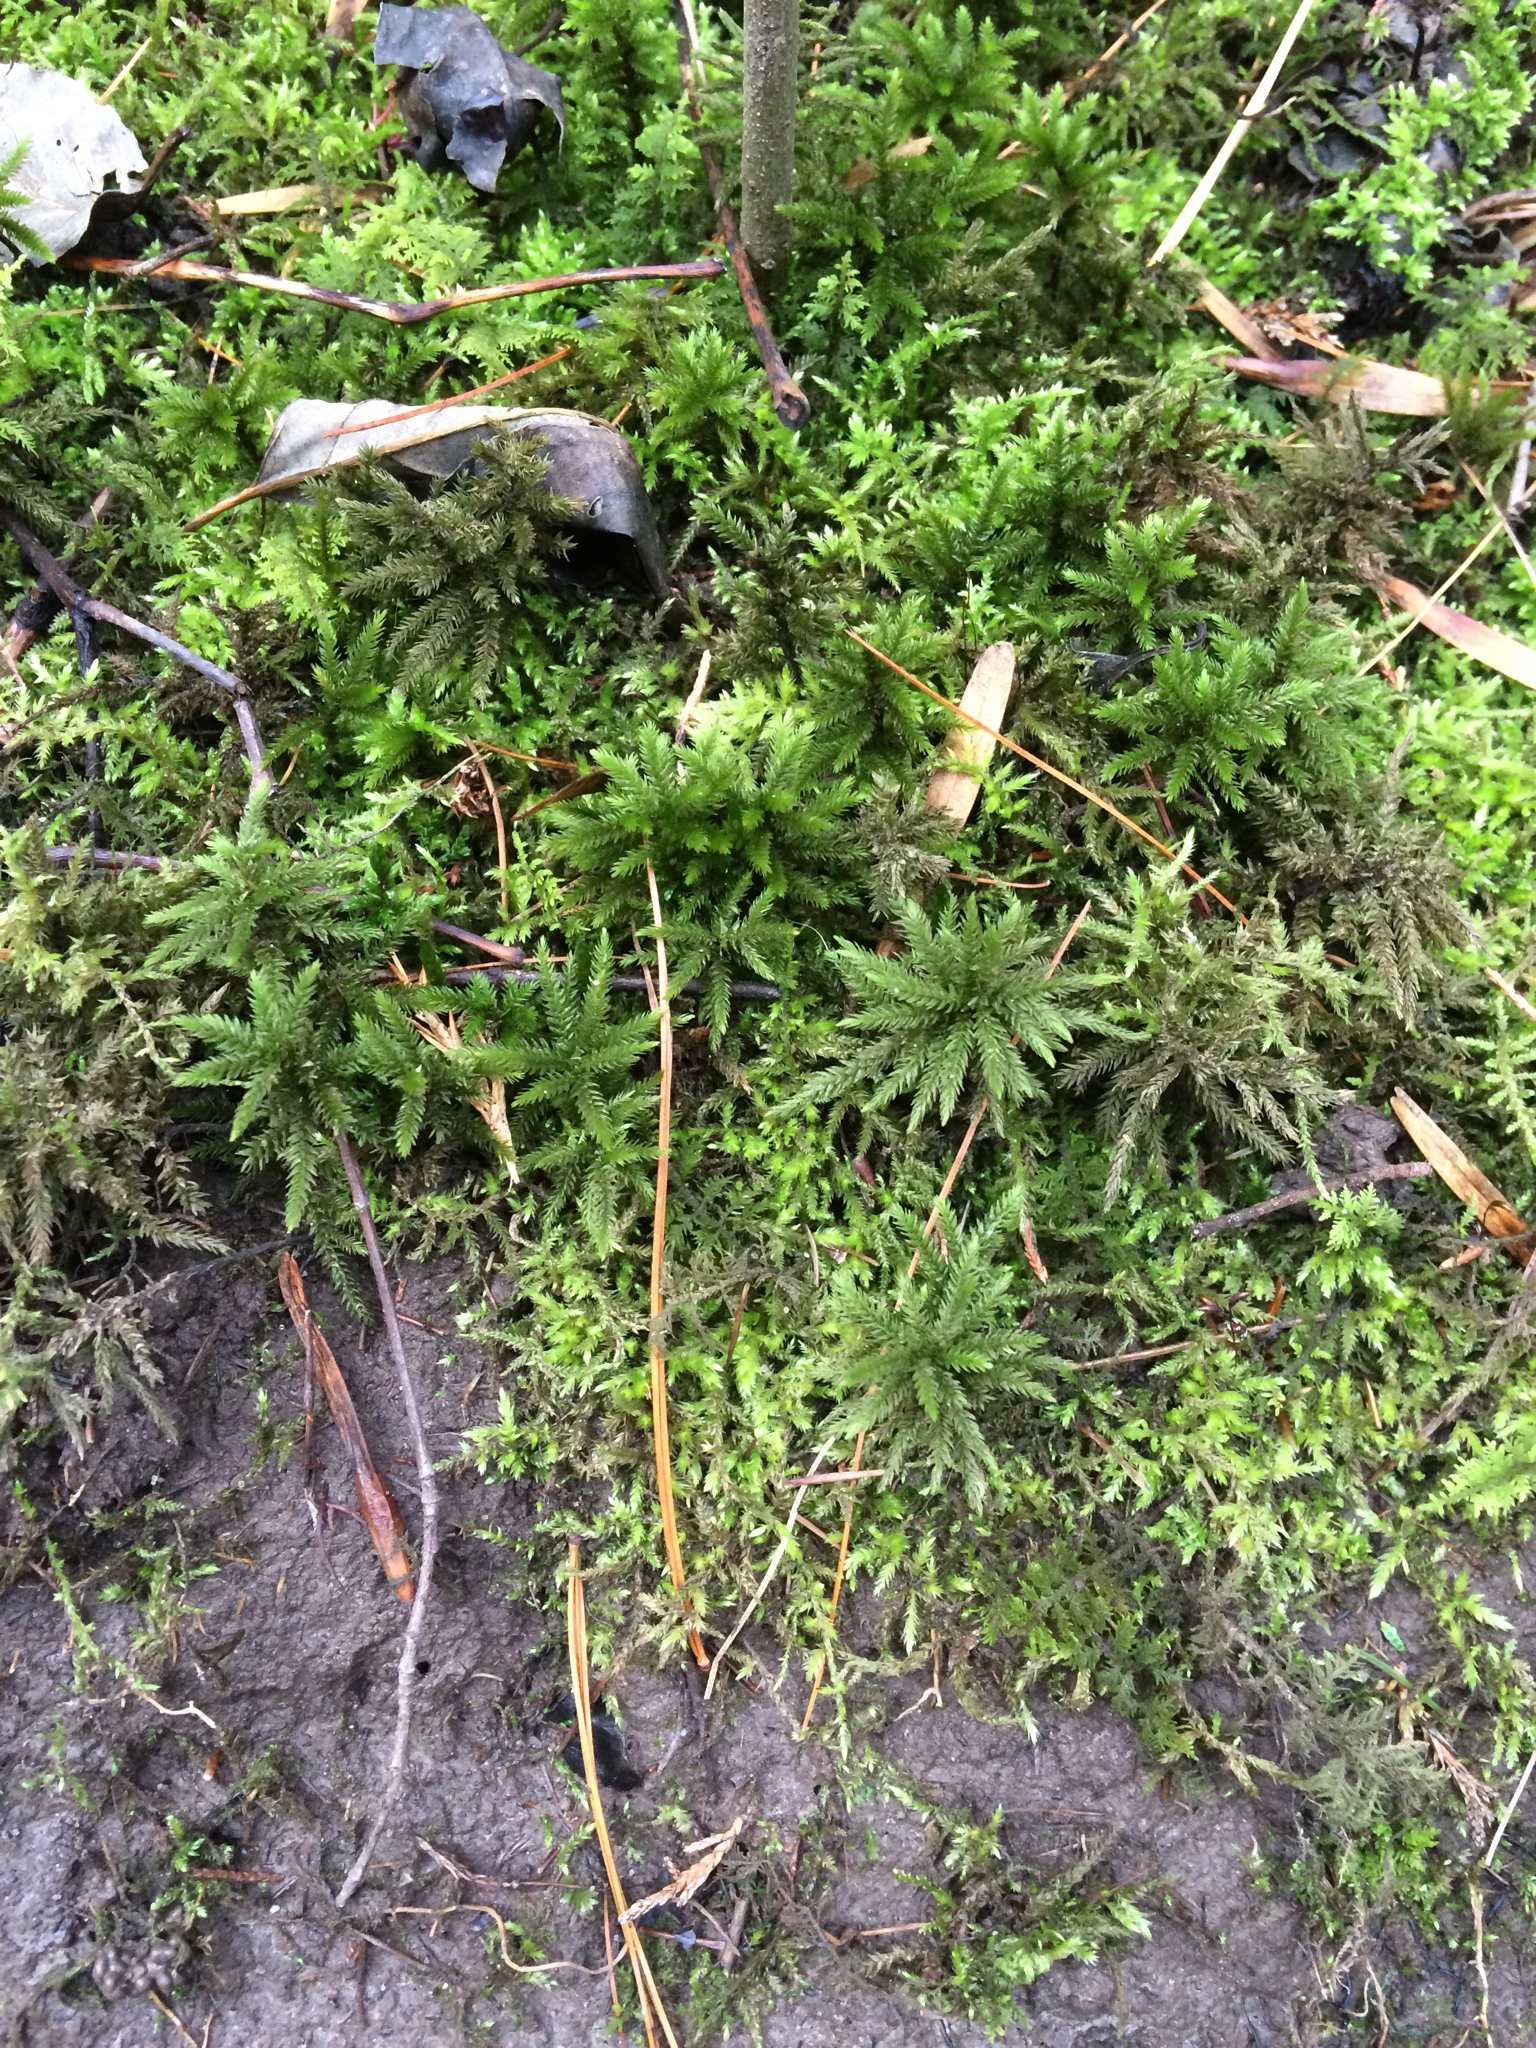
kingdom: Plantae
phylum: Bryophyta
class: Bryopsida
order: Hypnales
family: Climaciaceae
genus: Climacium
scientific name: Climacium dendroides
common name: Northern tree moss
